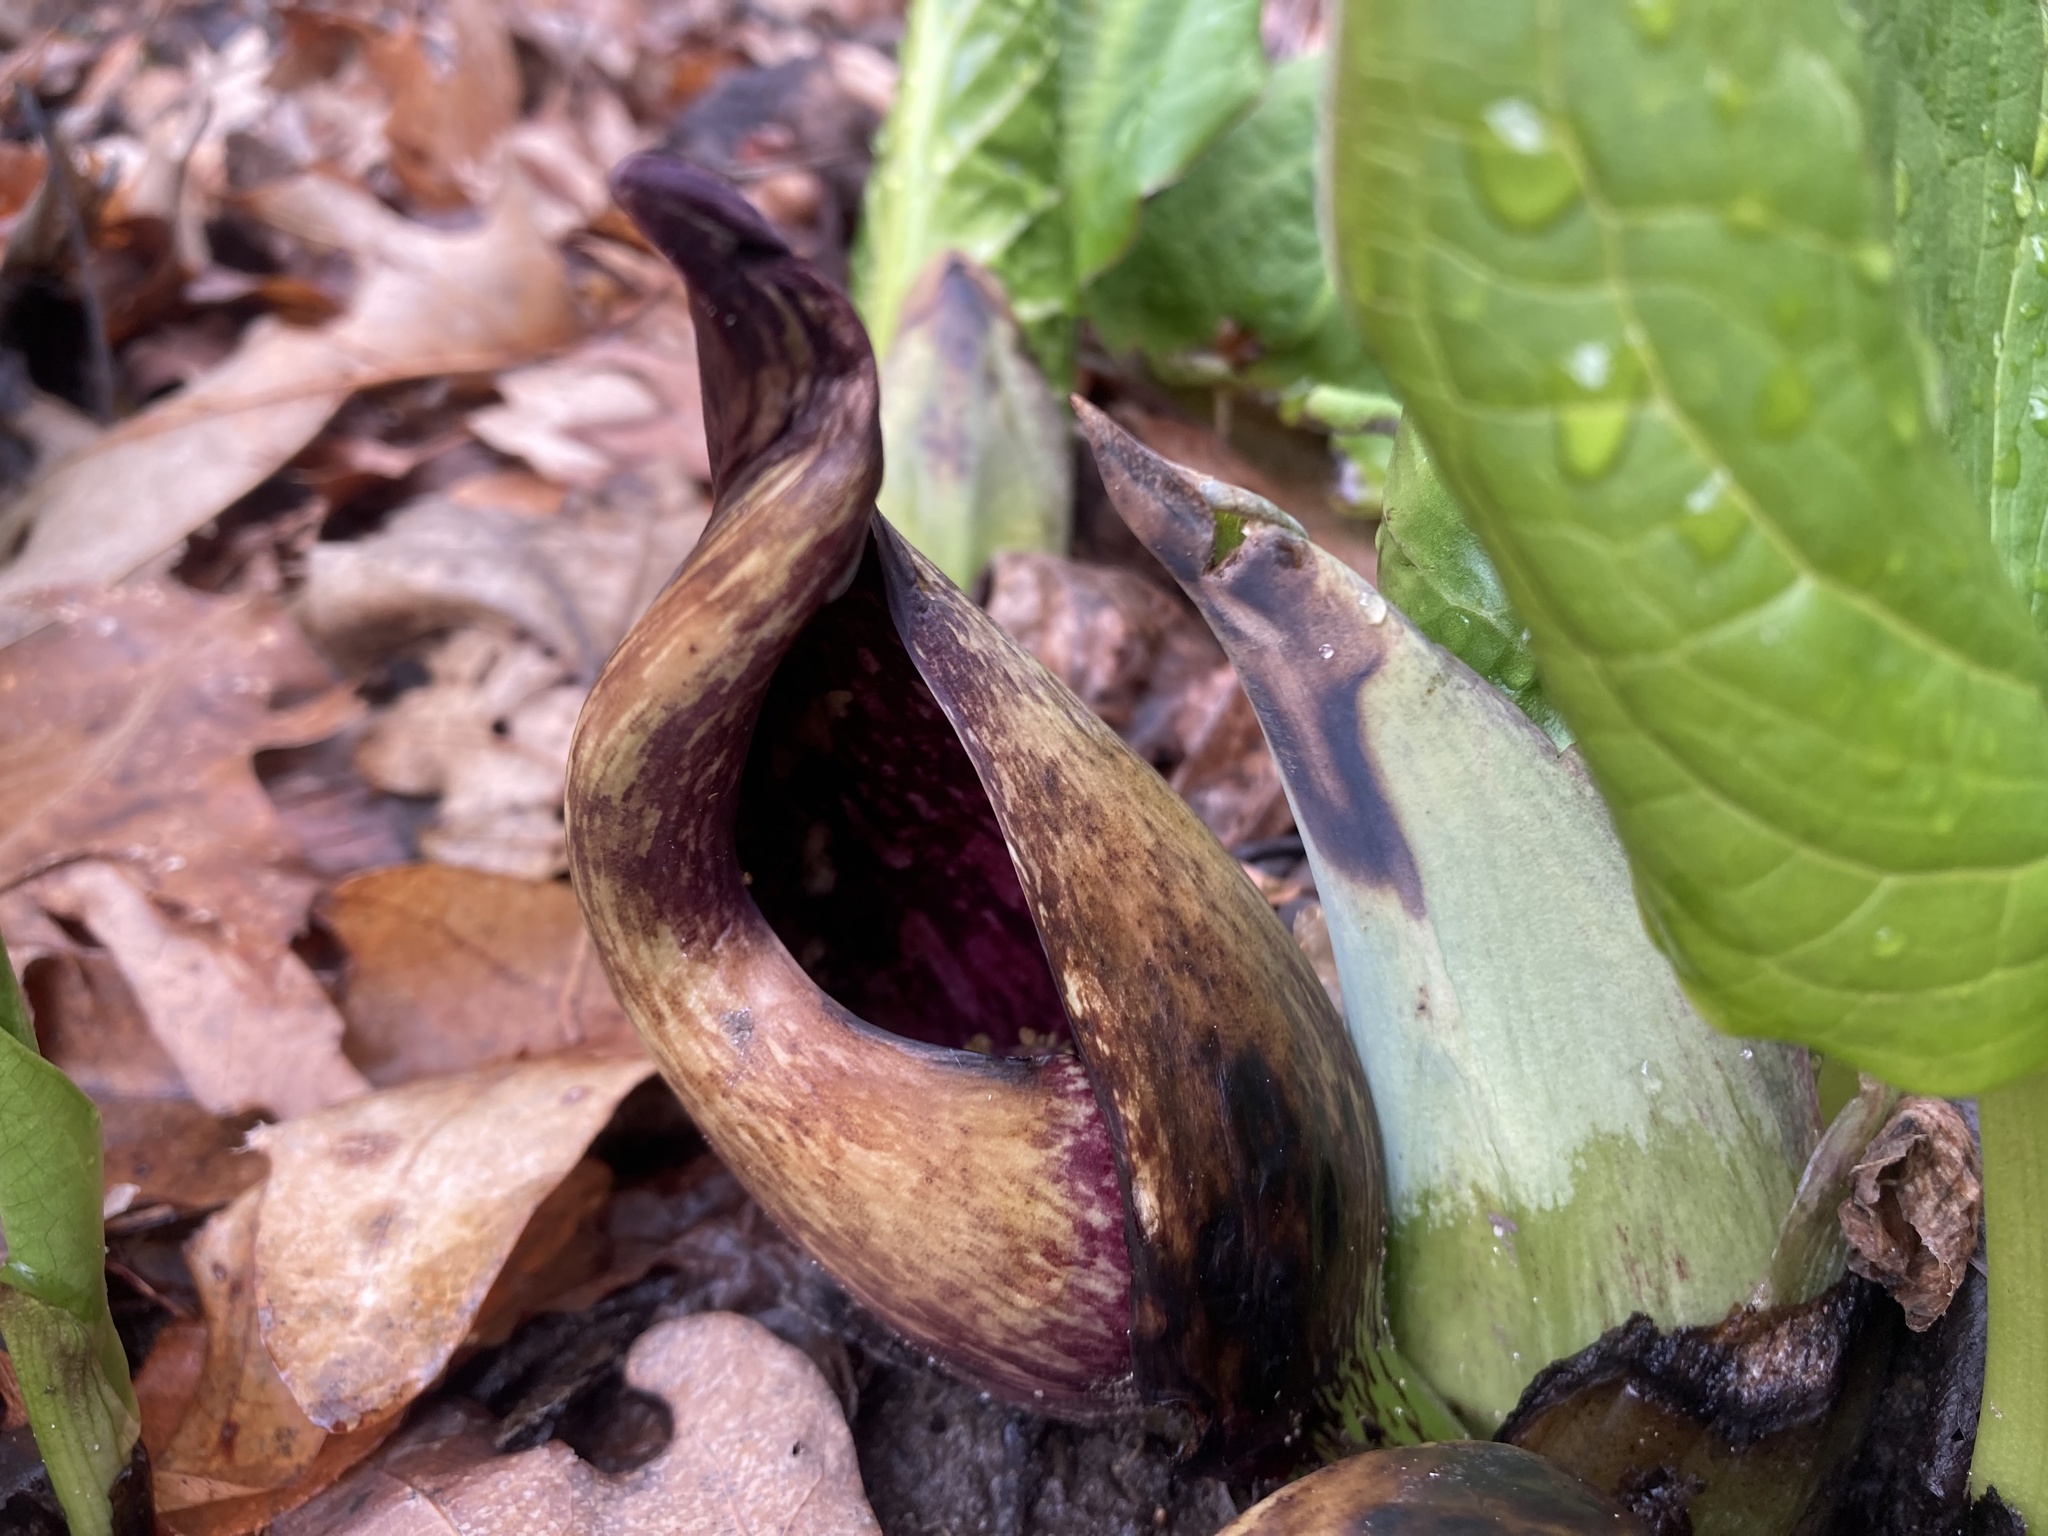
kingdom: Plantae
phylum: Tracheophyta
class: Liliopsida
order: Alismatales
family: Araceae
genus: Symplocarpus
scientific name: Symplocarpus foetidus
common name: Eastern skunk cabbage
